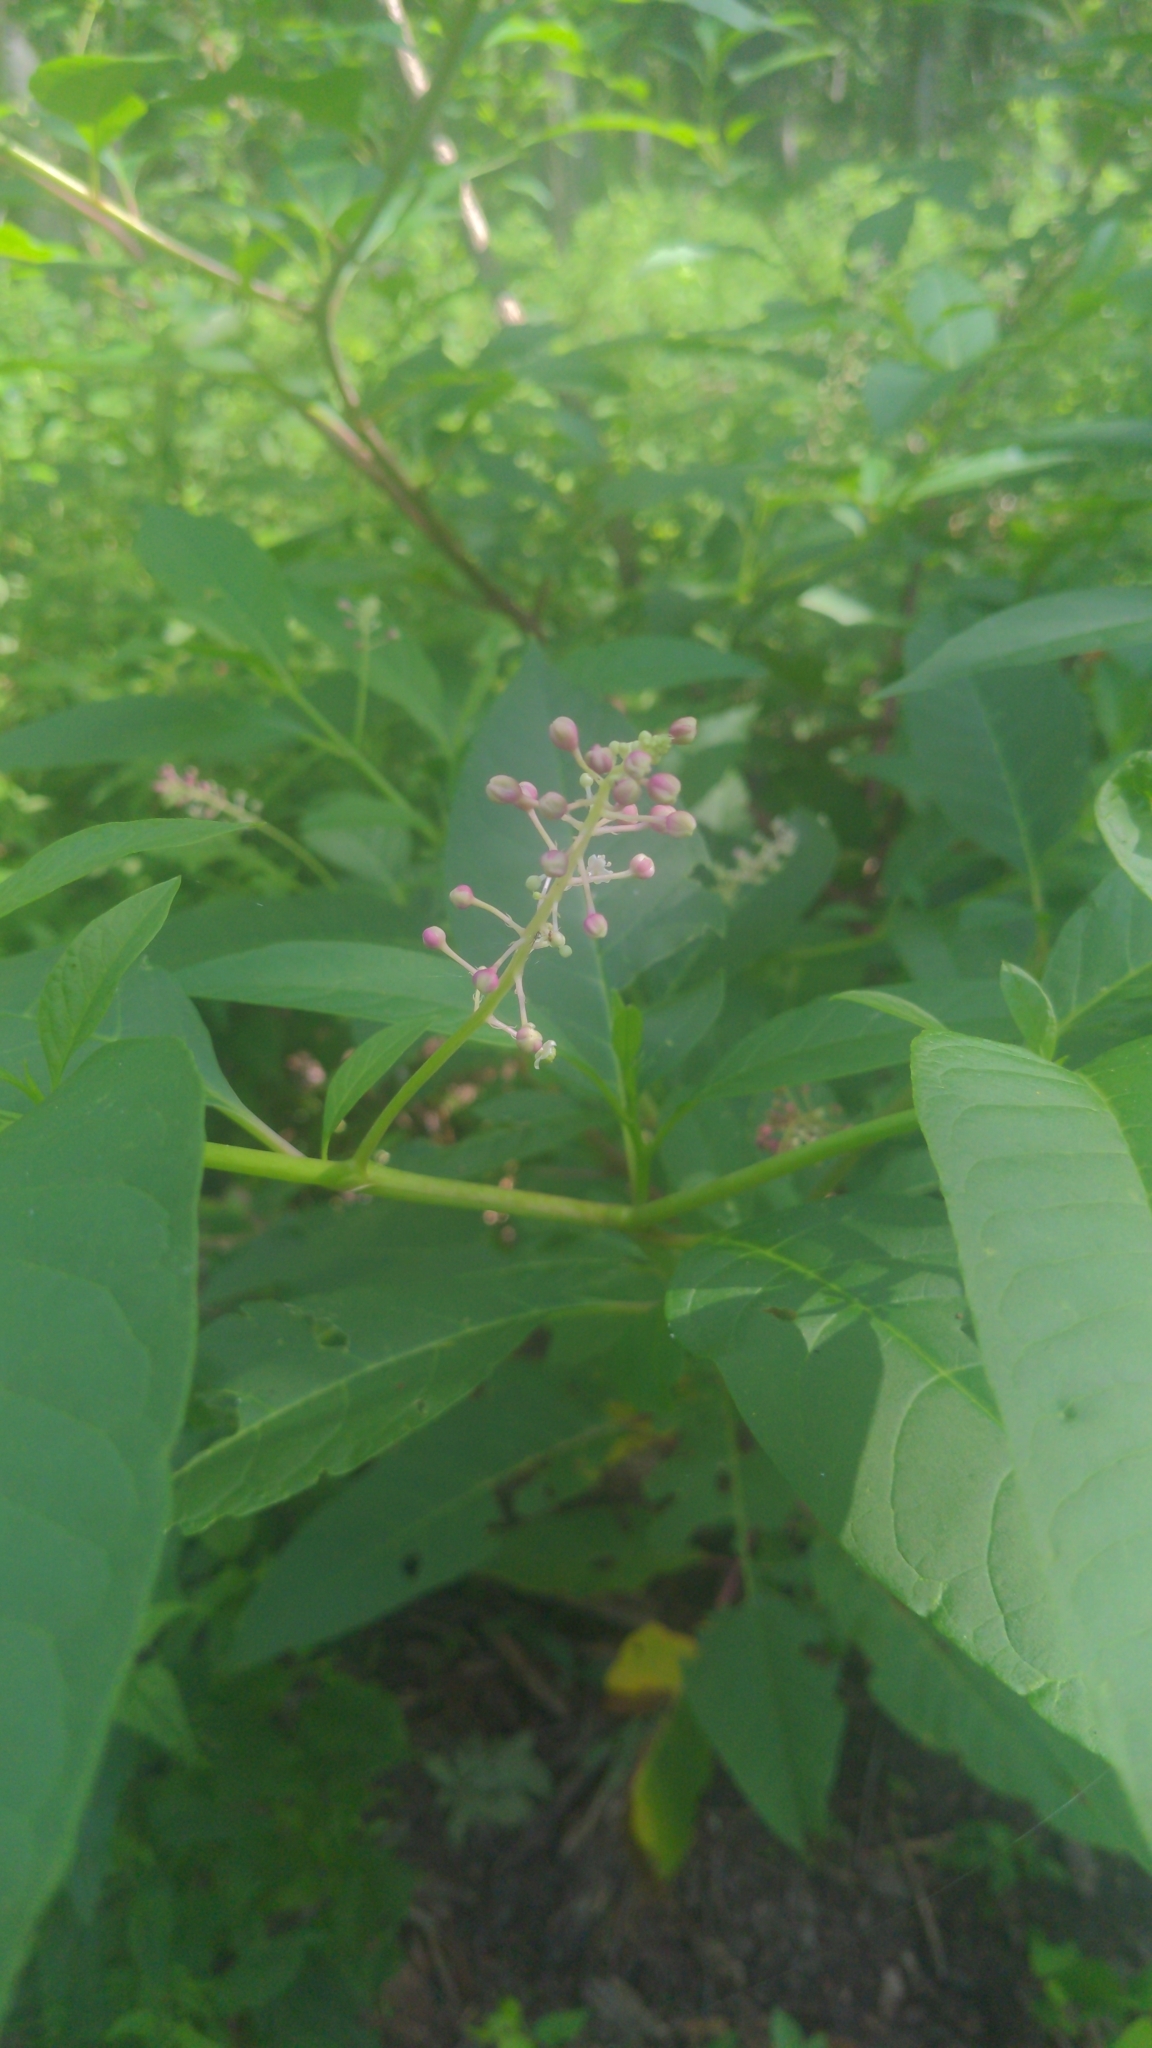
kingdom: Plantae
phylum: Tracheophyta
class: Magnoliopsida
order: Caryophyllales
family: Phytolaccaceae
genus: Phytolacca
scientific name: Phytolacca americana
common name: American pokeweed
